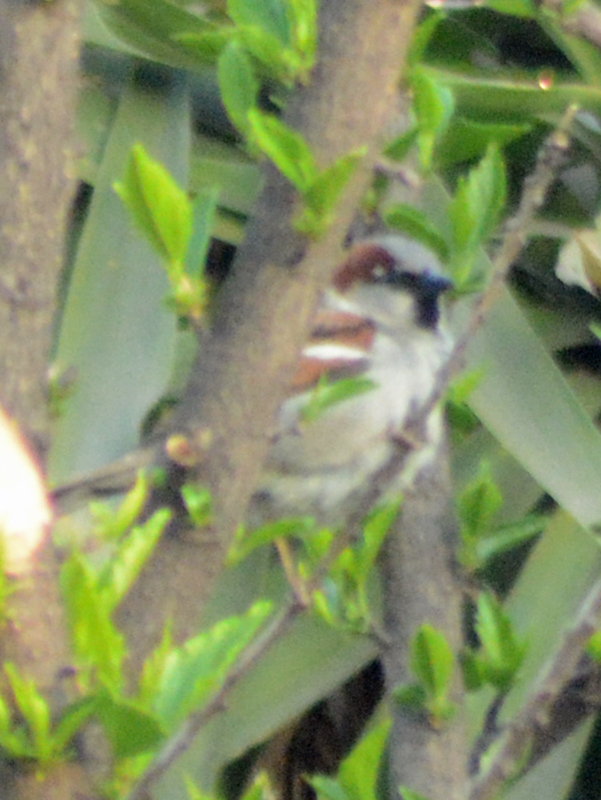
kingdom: Animalia
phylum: Chordata
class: Aves
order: Passeriformes
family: Passeridae
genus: Passer
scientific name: Passer domesticus
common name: House sparrow
